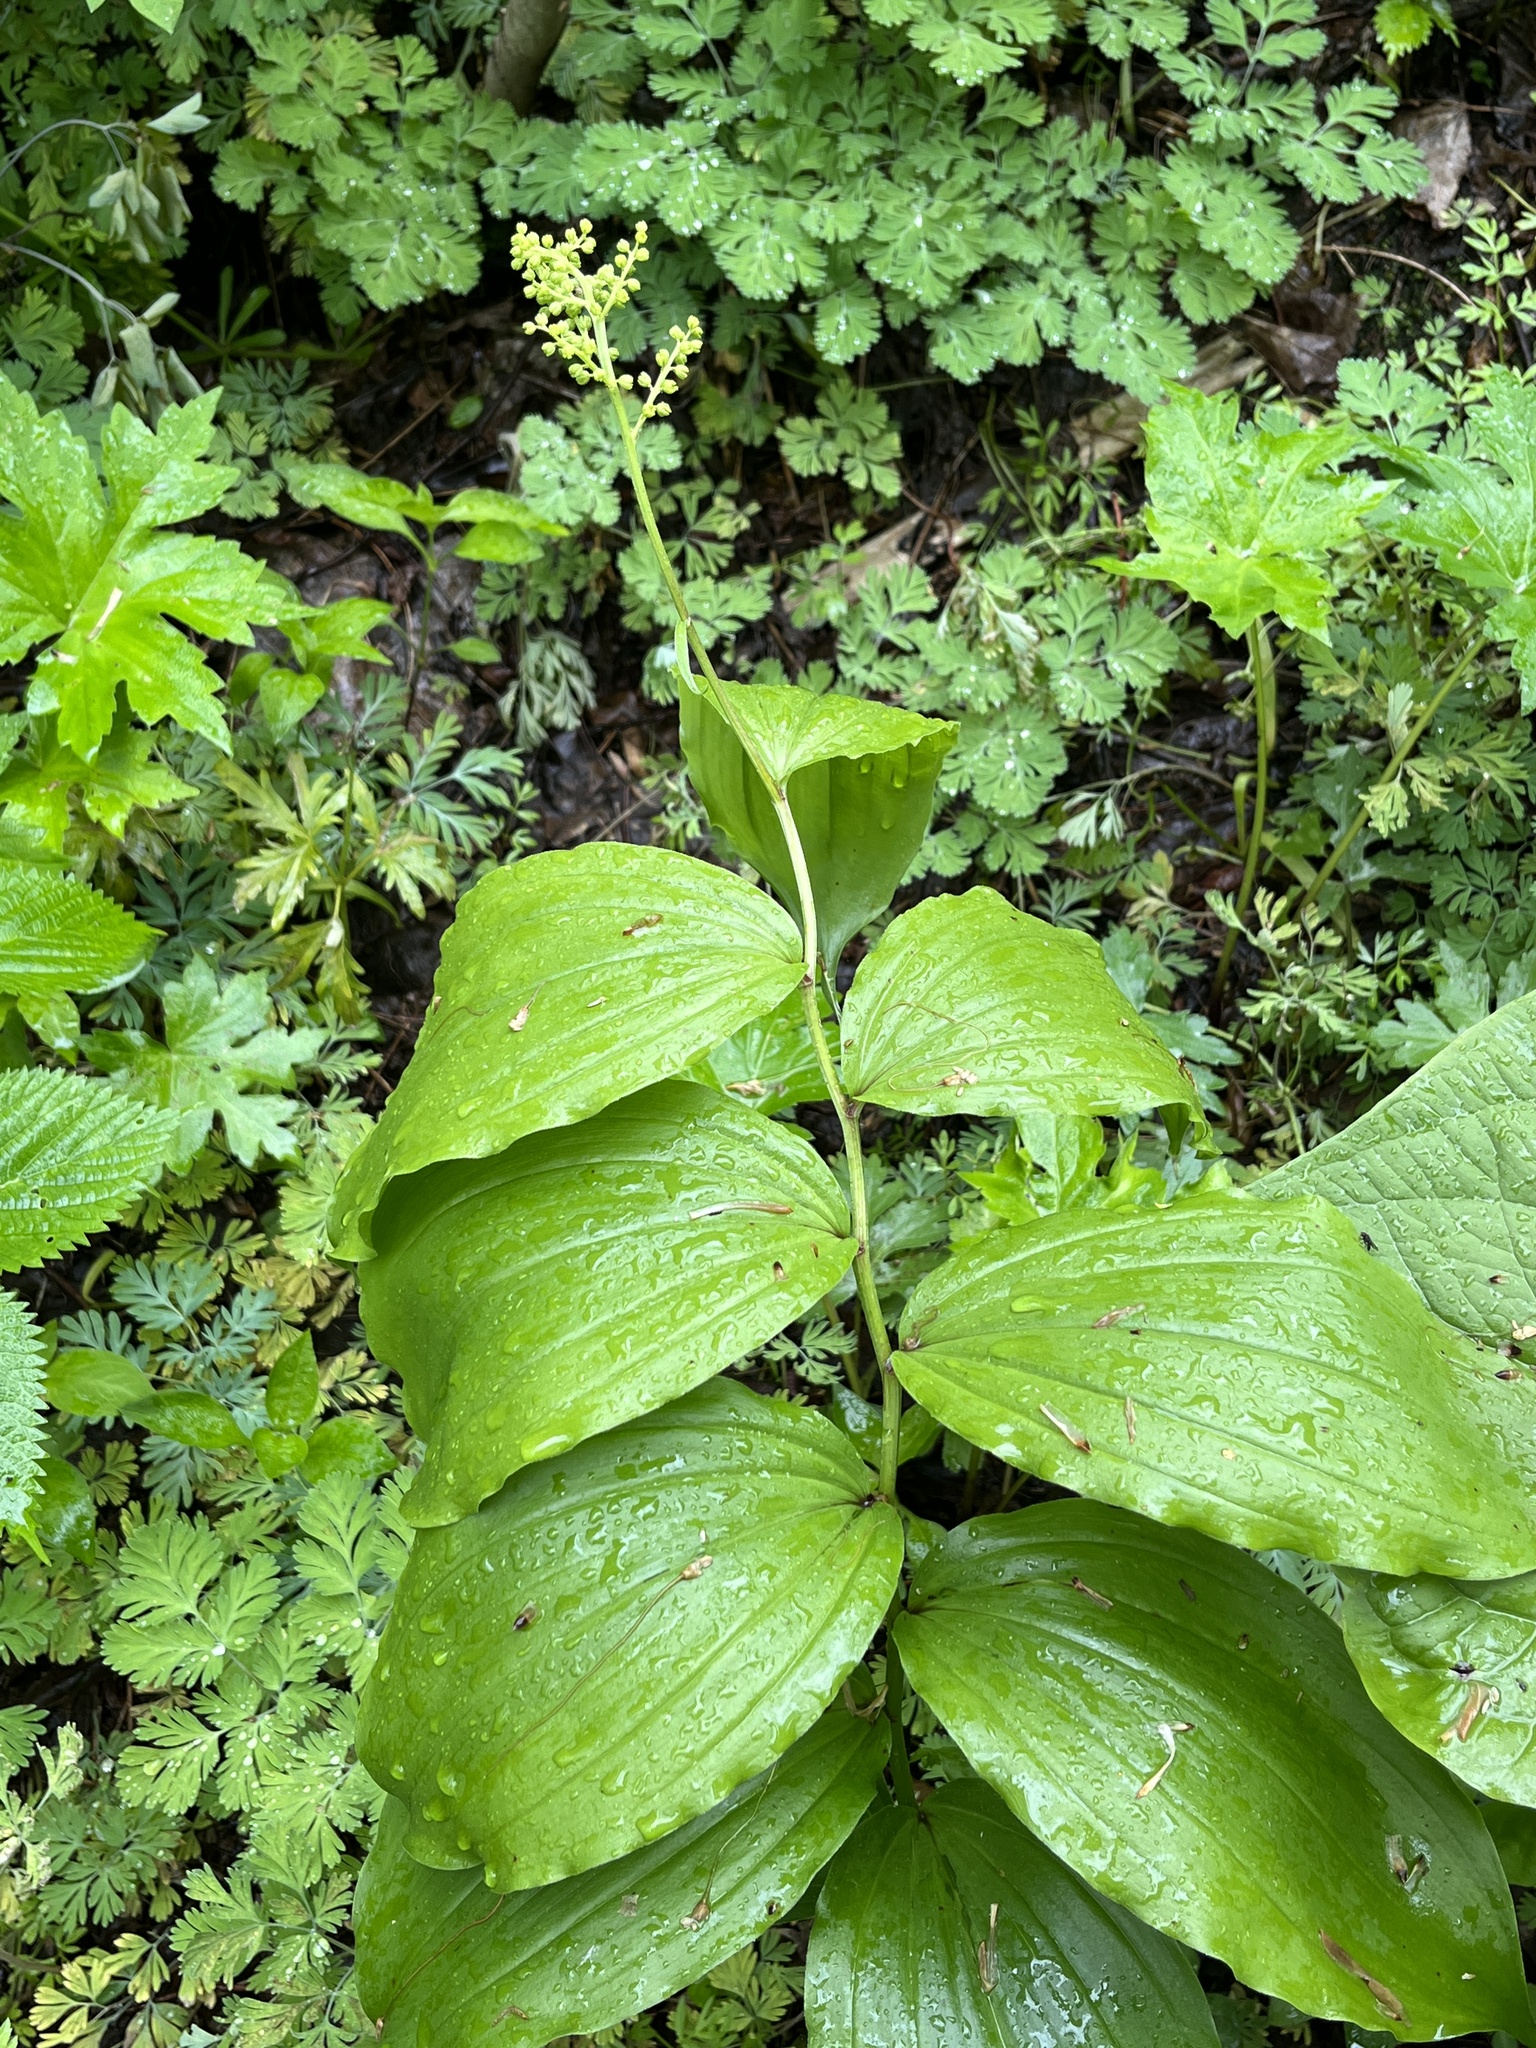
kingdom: Plantae
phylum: Tracheophyta
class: Liliopsida
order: Asparagales
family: Asparagaceae
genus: Maianthemum
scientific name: Maianthemum racemosum
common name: False spikenard
